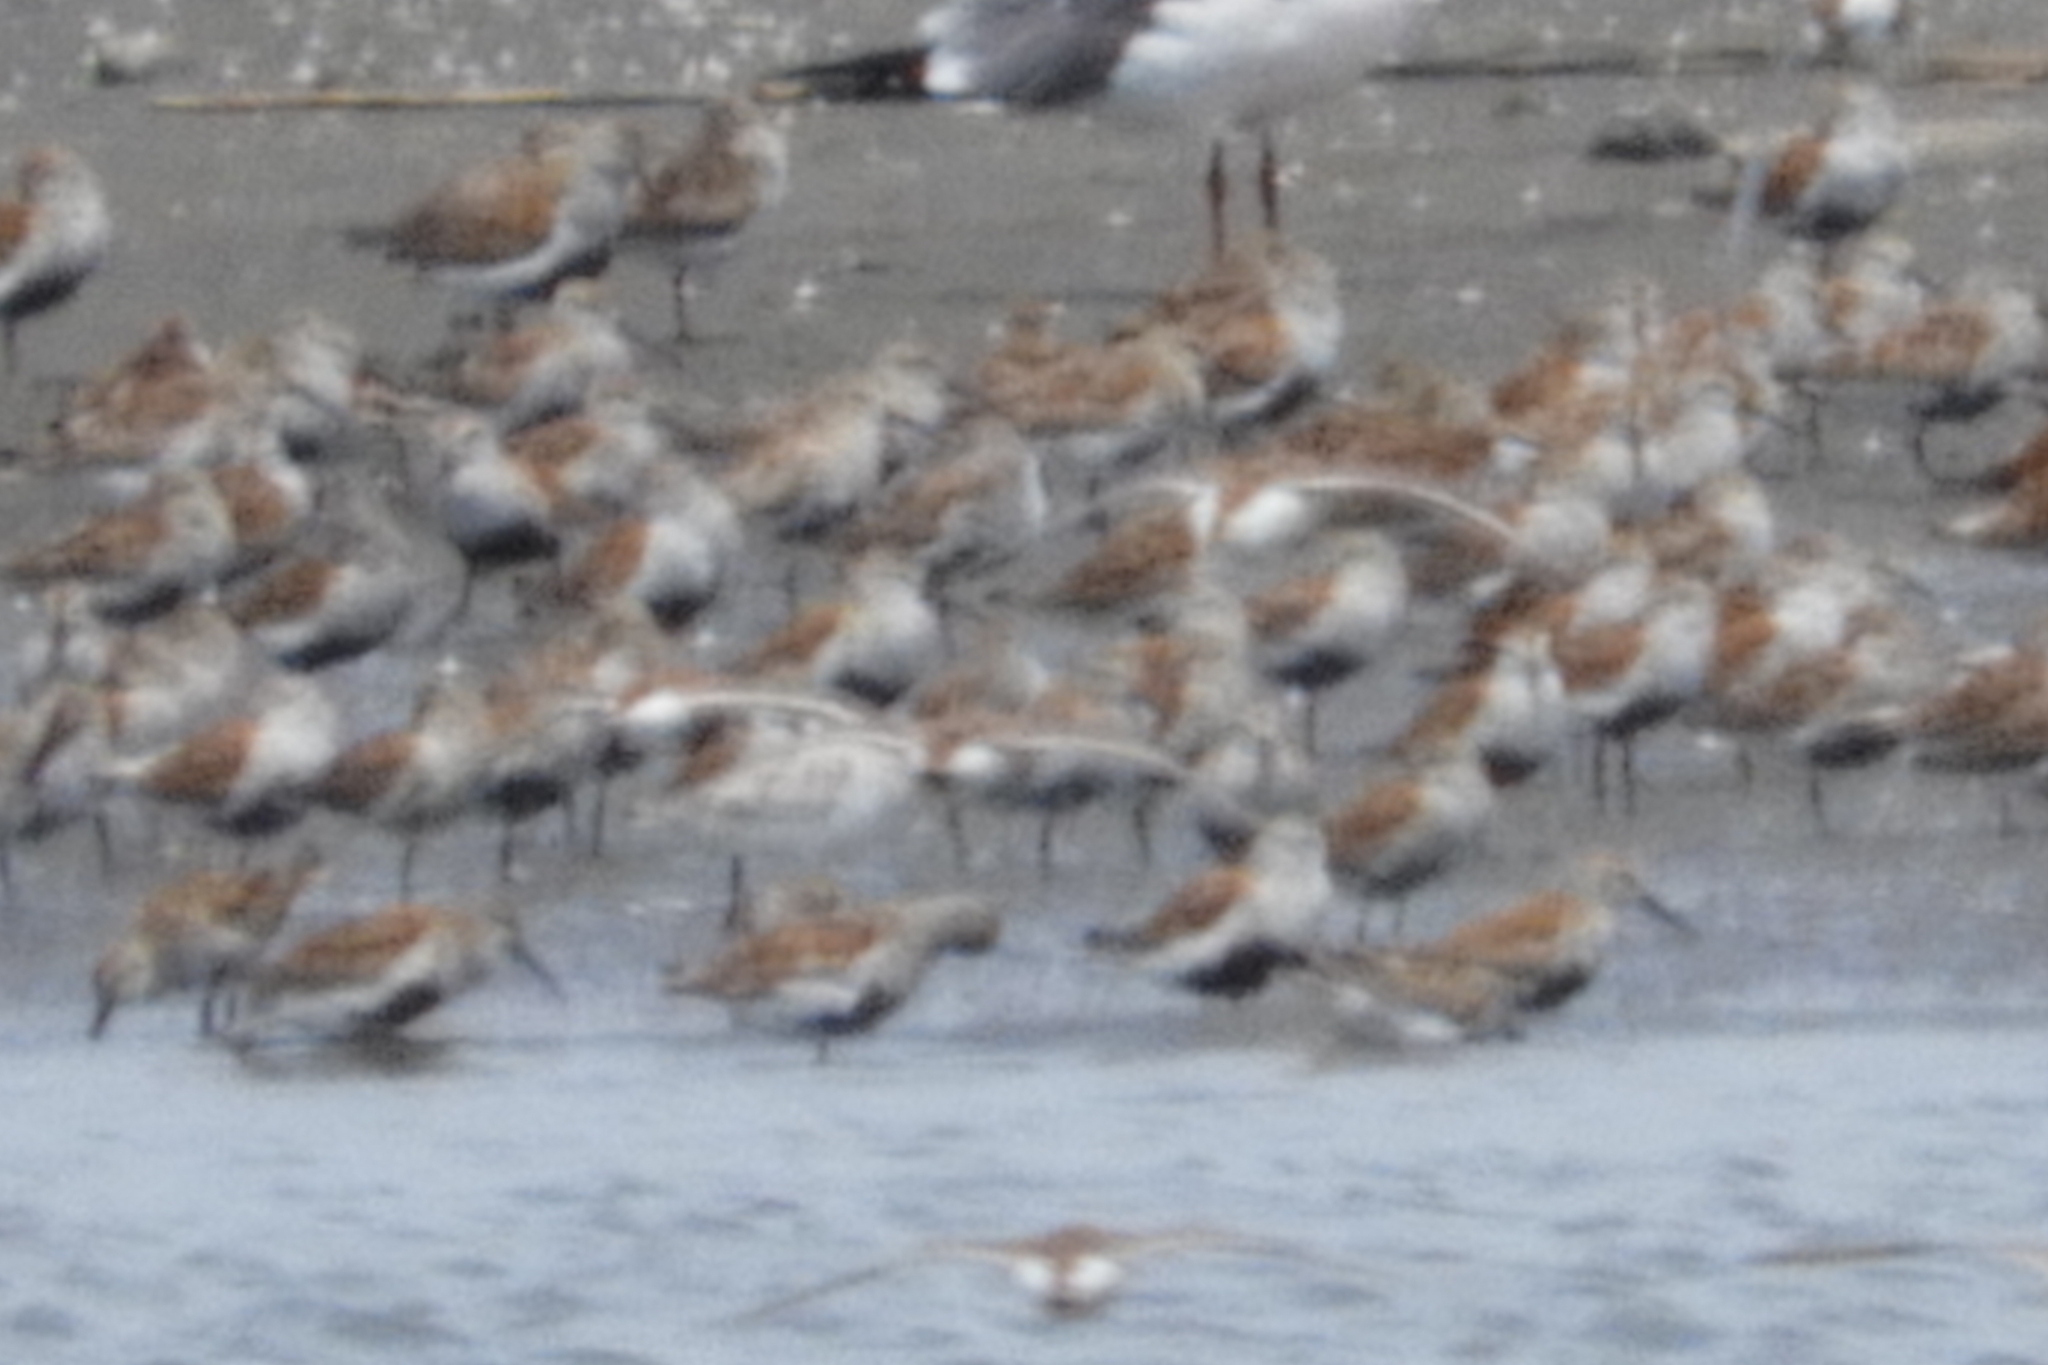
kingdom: Animalia
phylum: Chordata
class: Aves
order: Charadriiformes
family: Scolopacidae
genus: Calidris
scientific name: Calidris alpina
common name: Dunlin
